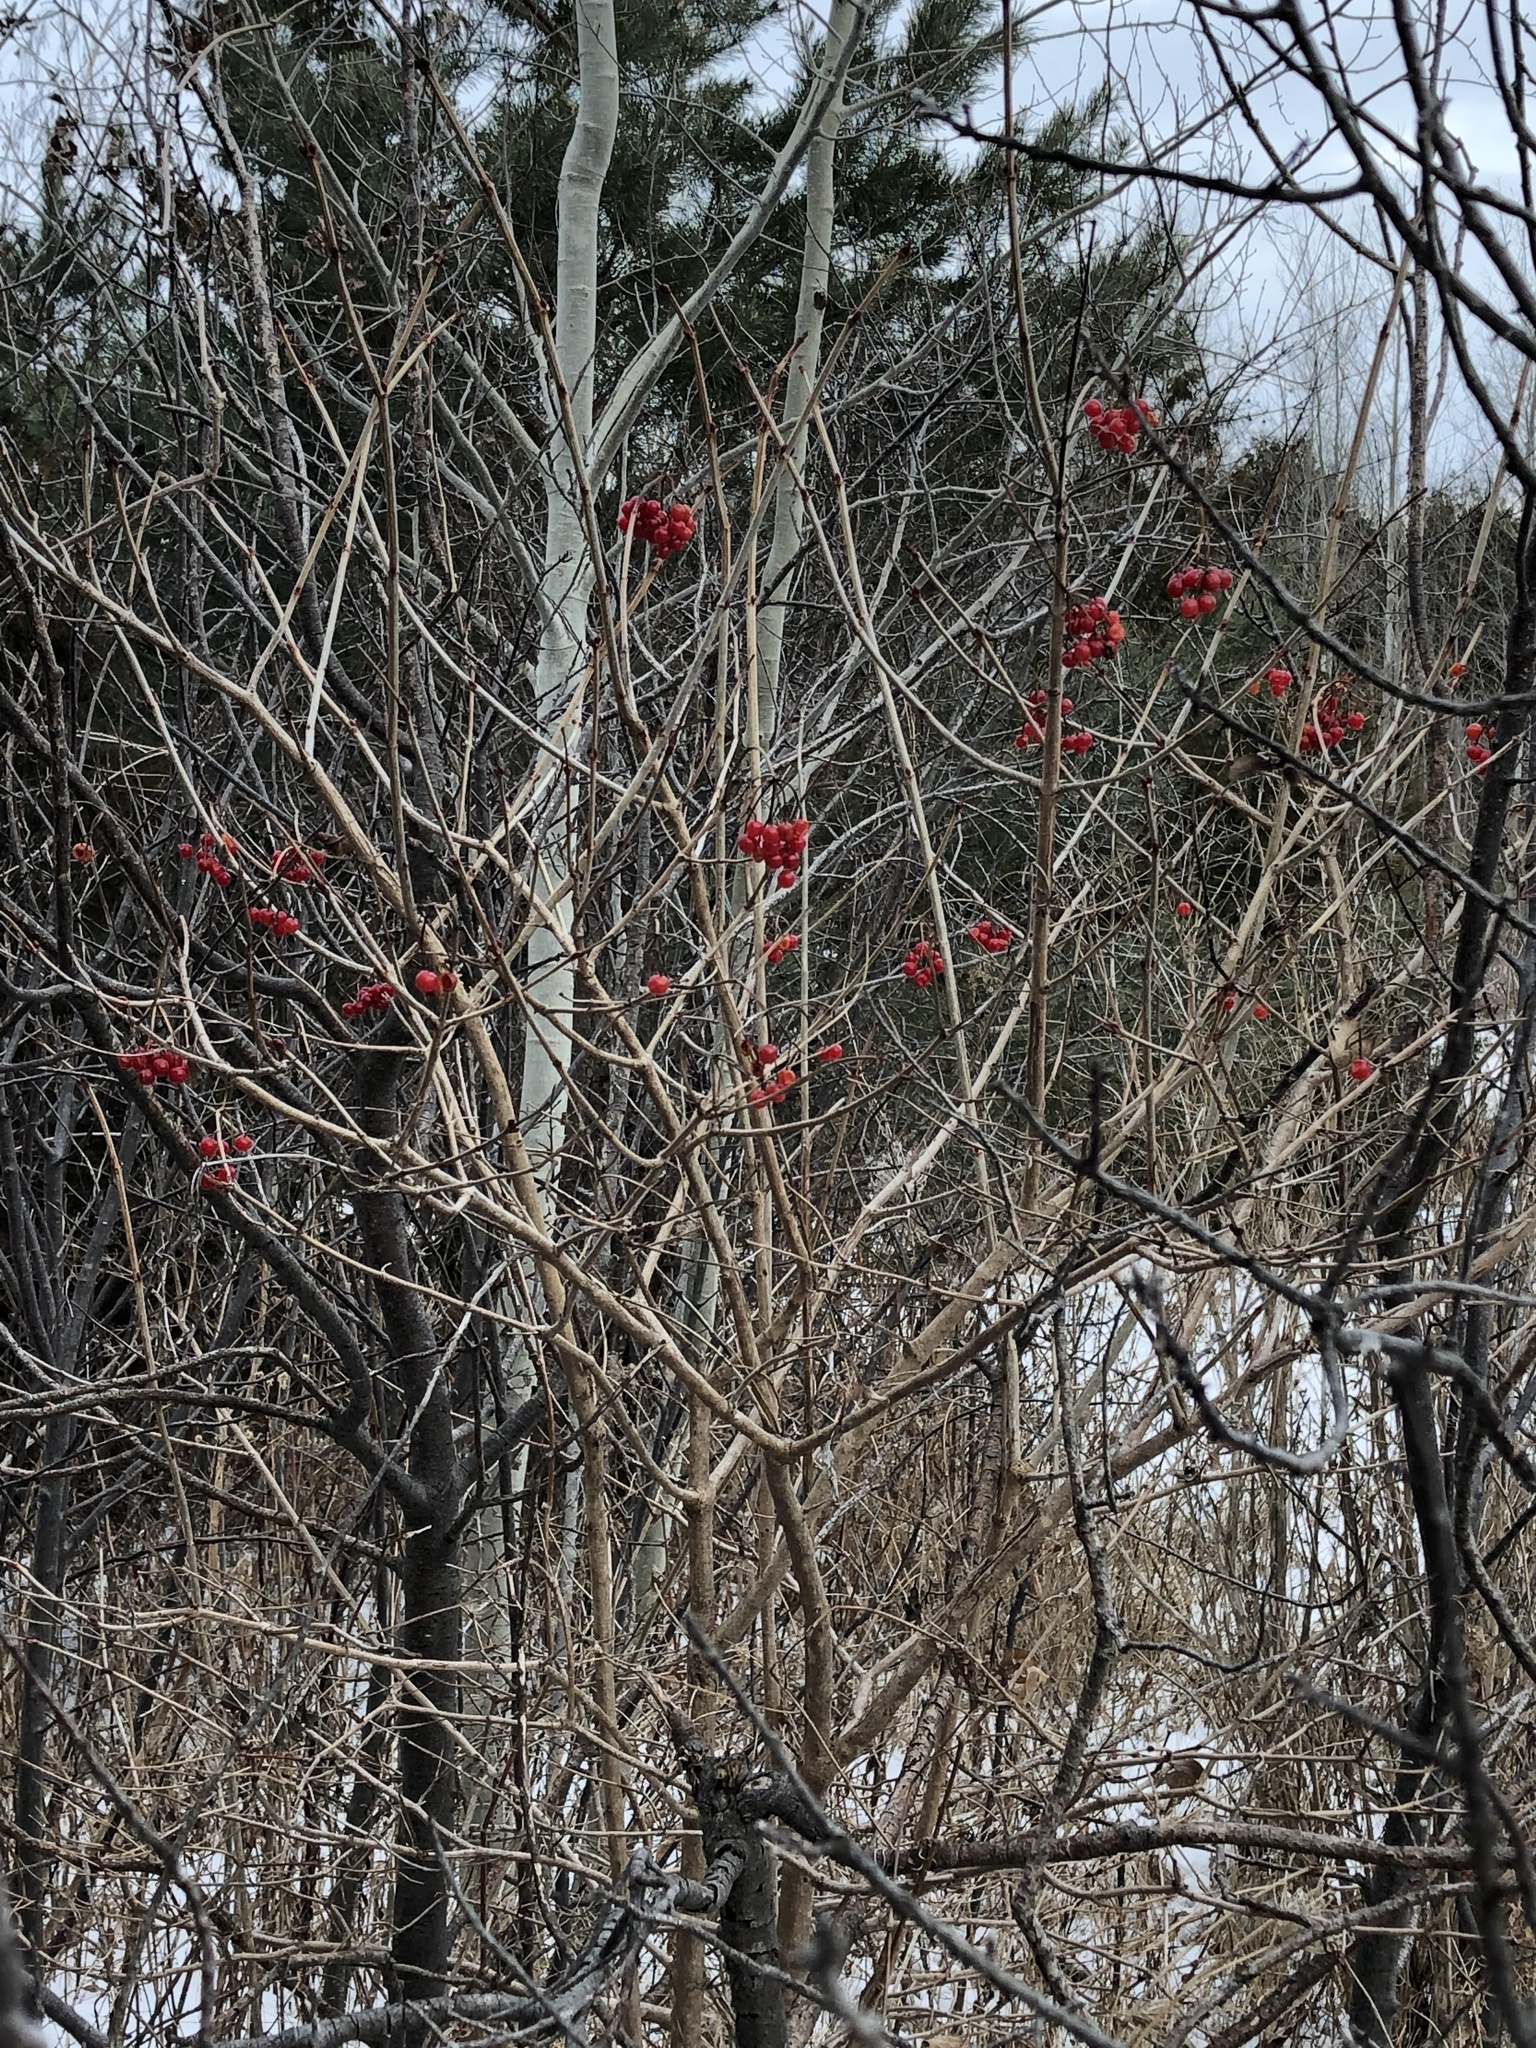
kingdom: Plantae
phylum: Tracheophyta
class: Magnoliopsida
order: Dipsacales
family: Viburnaceae
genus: Viburnum
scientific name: Viburnum opulus
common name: Guelder-rose
